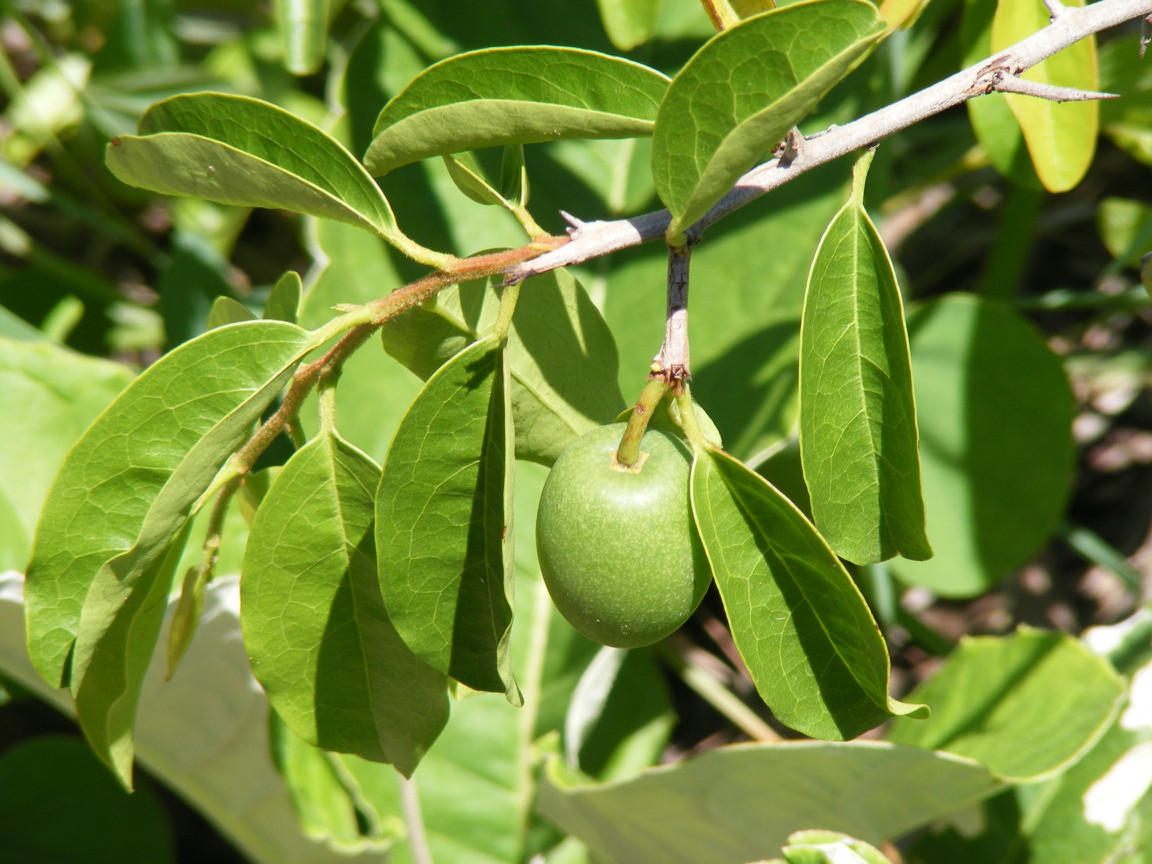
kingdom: Plantae
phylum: Tracheophyta
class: Magnoliopsida
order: Santalales
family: Ximeniaceae
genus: Ximenia
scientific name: Ximenia caffra
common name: Large sourplum
